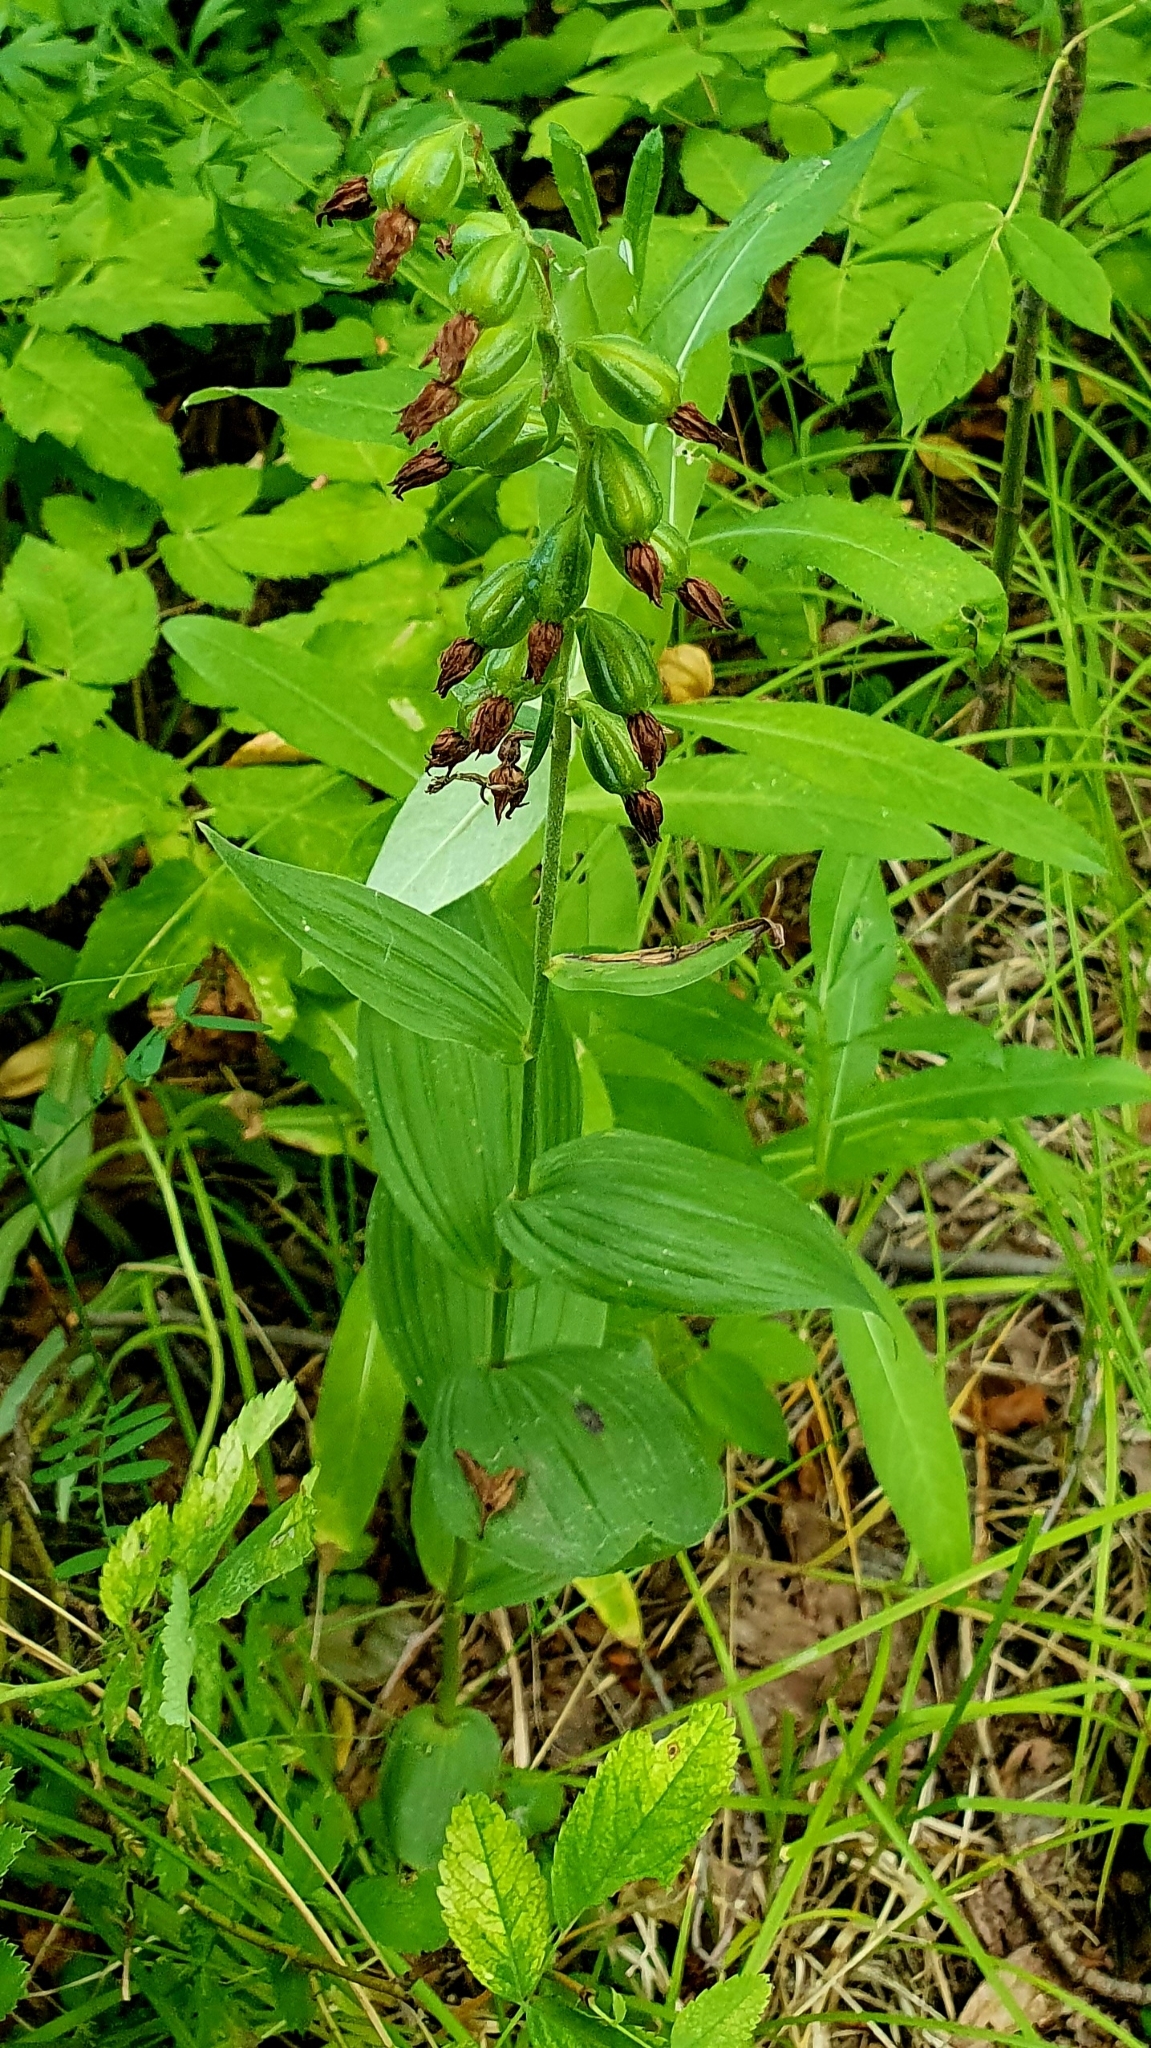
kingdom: Plantae
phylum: Tracheophyta
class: Liliopsida
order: Asparagales
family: Orchidaceae
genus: Epipactis
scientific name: Epipactis helleborine
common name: Broad-leaved helleborine
